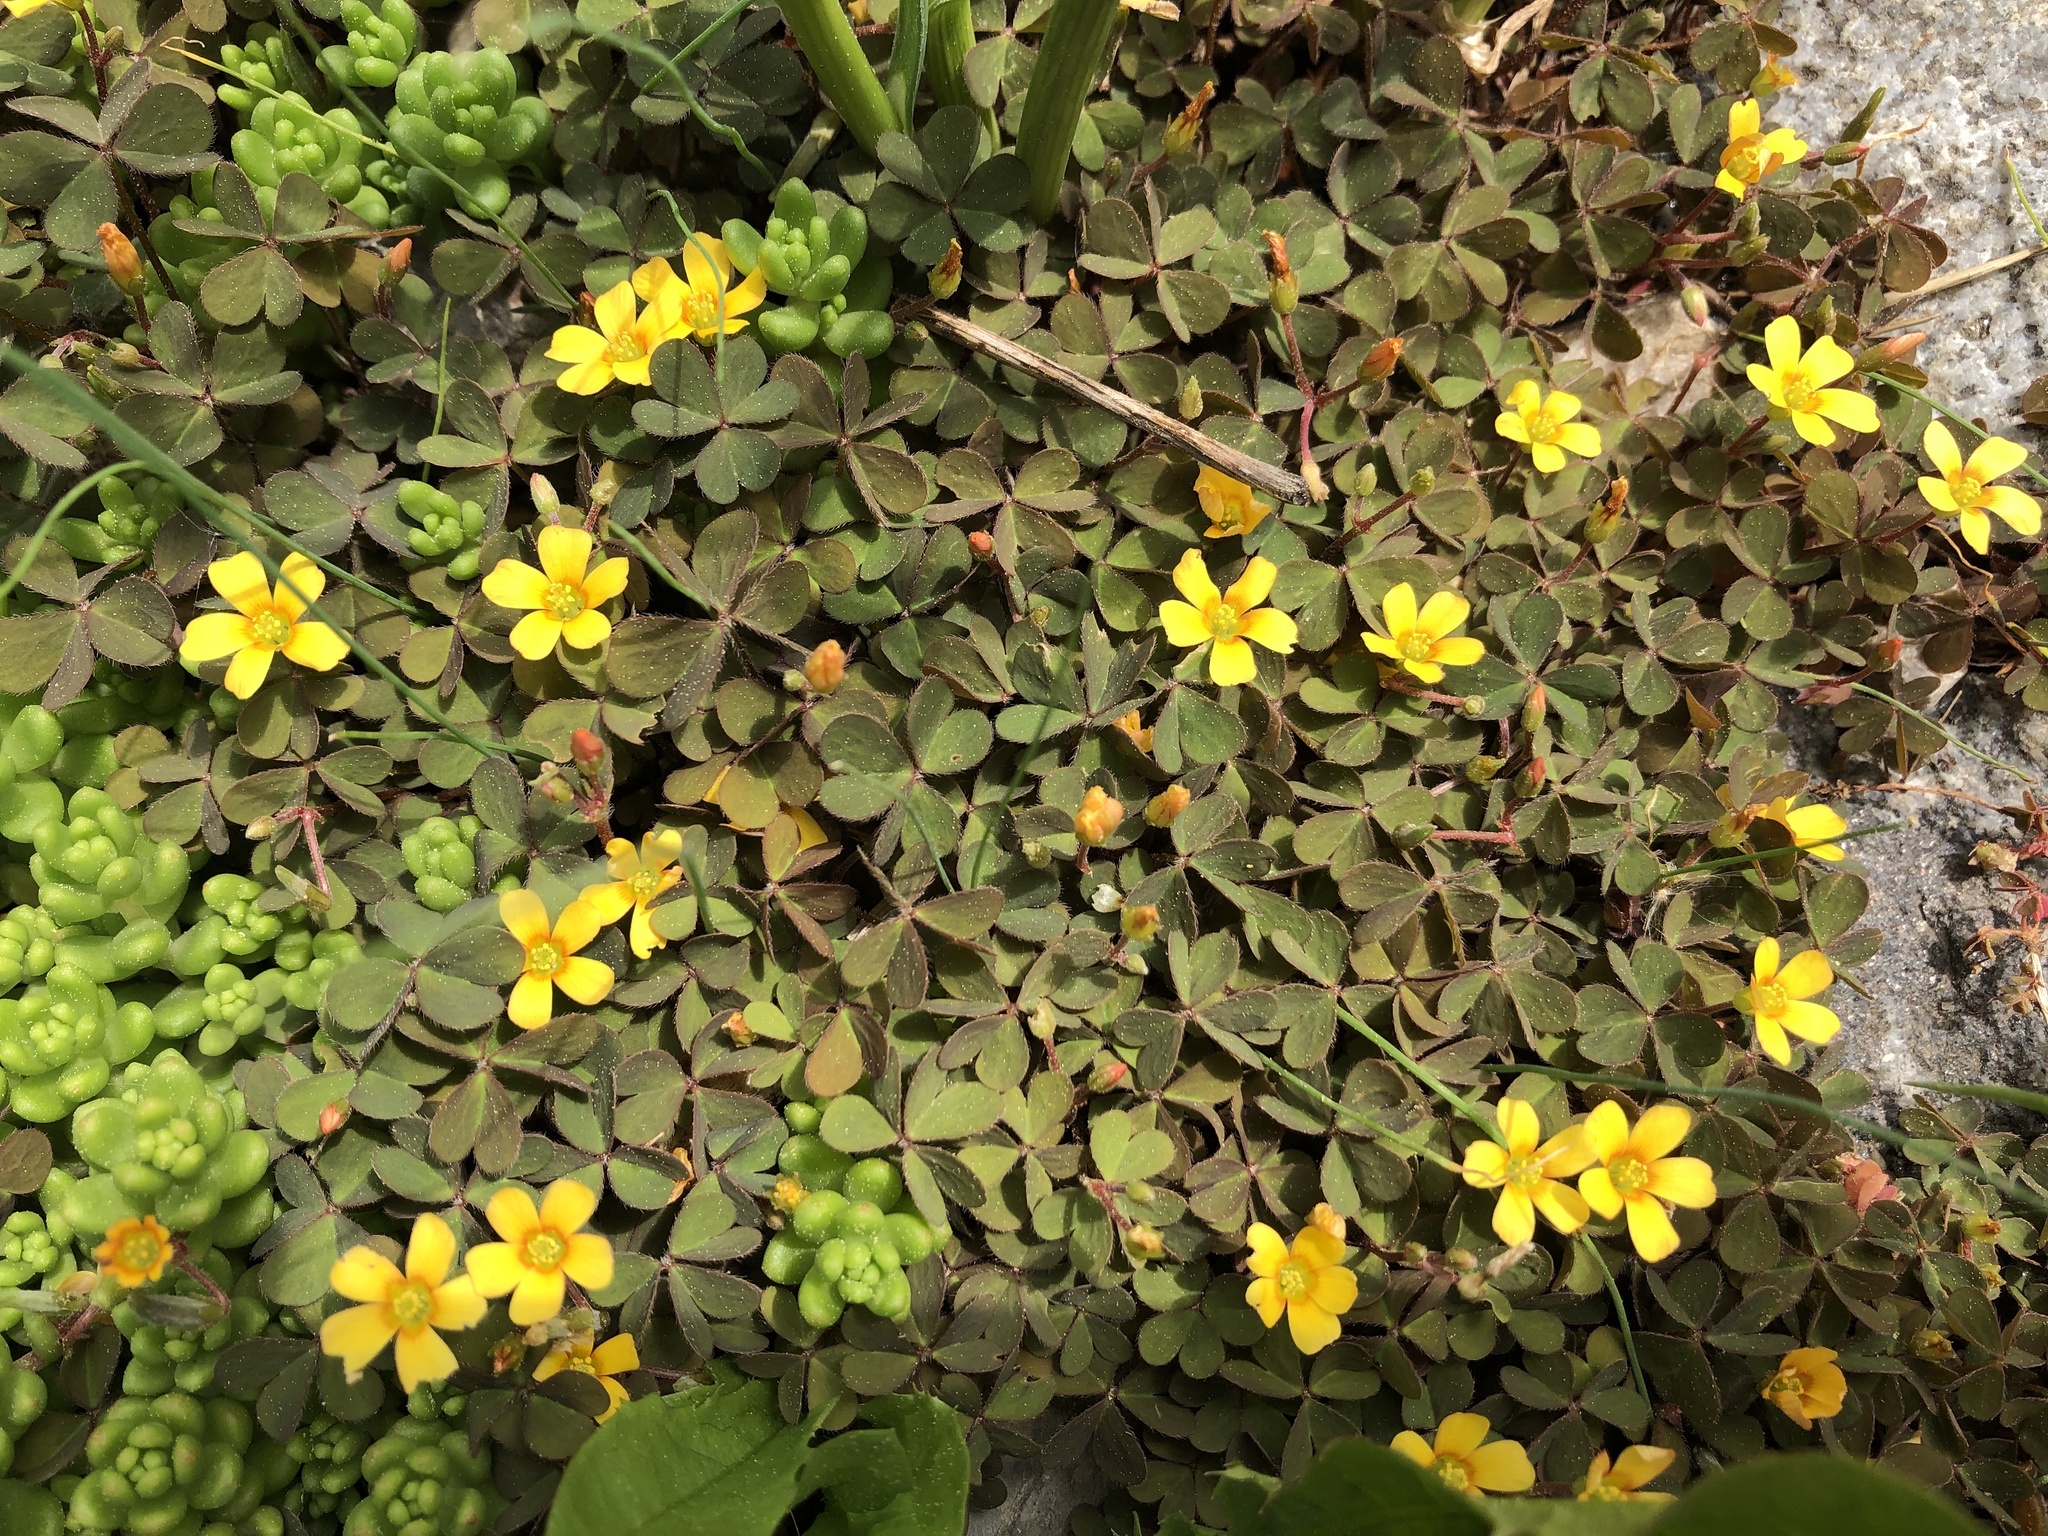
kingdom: Plantae
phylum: Tracheophyta
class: Magnoliopsida
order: Oxalidales
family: Oxalidaceae
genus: Oxalis
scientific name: Oxalis corniculata
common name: Procumbent yellow-sorrel
